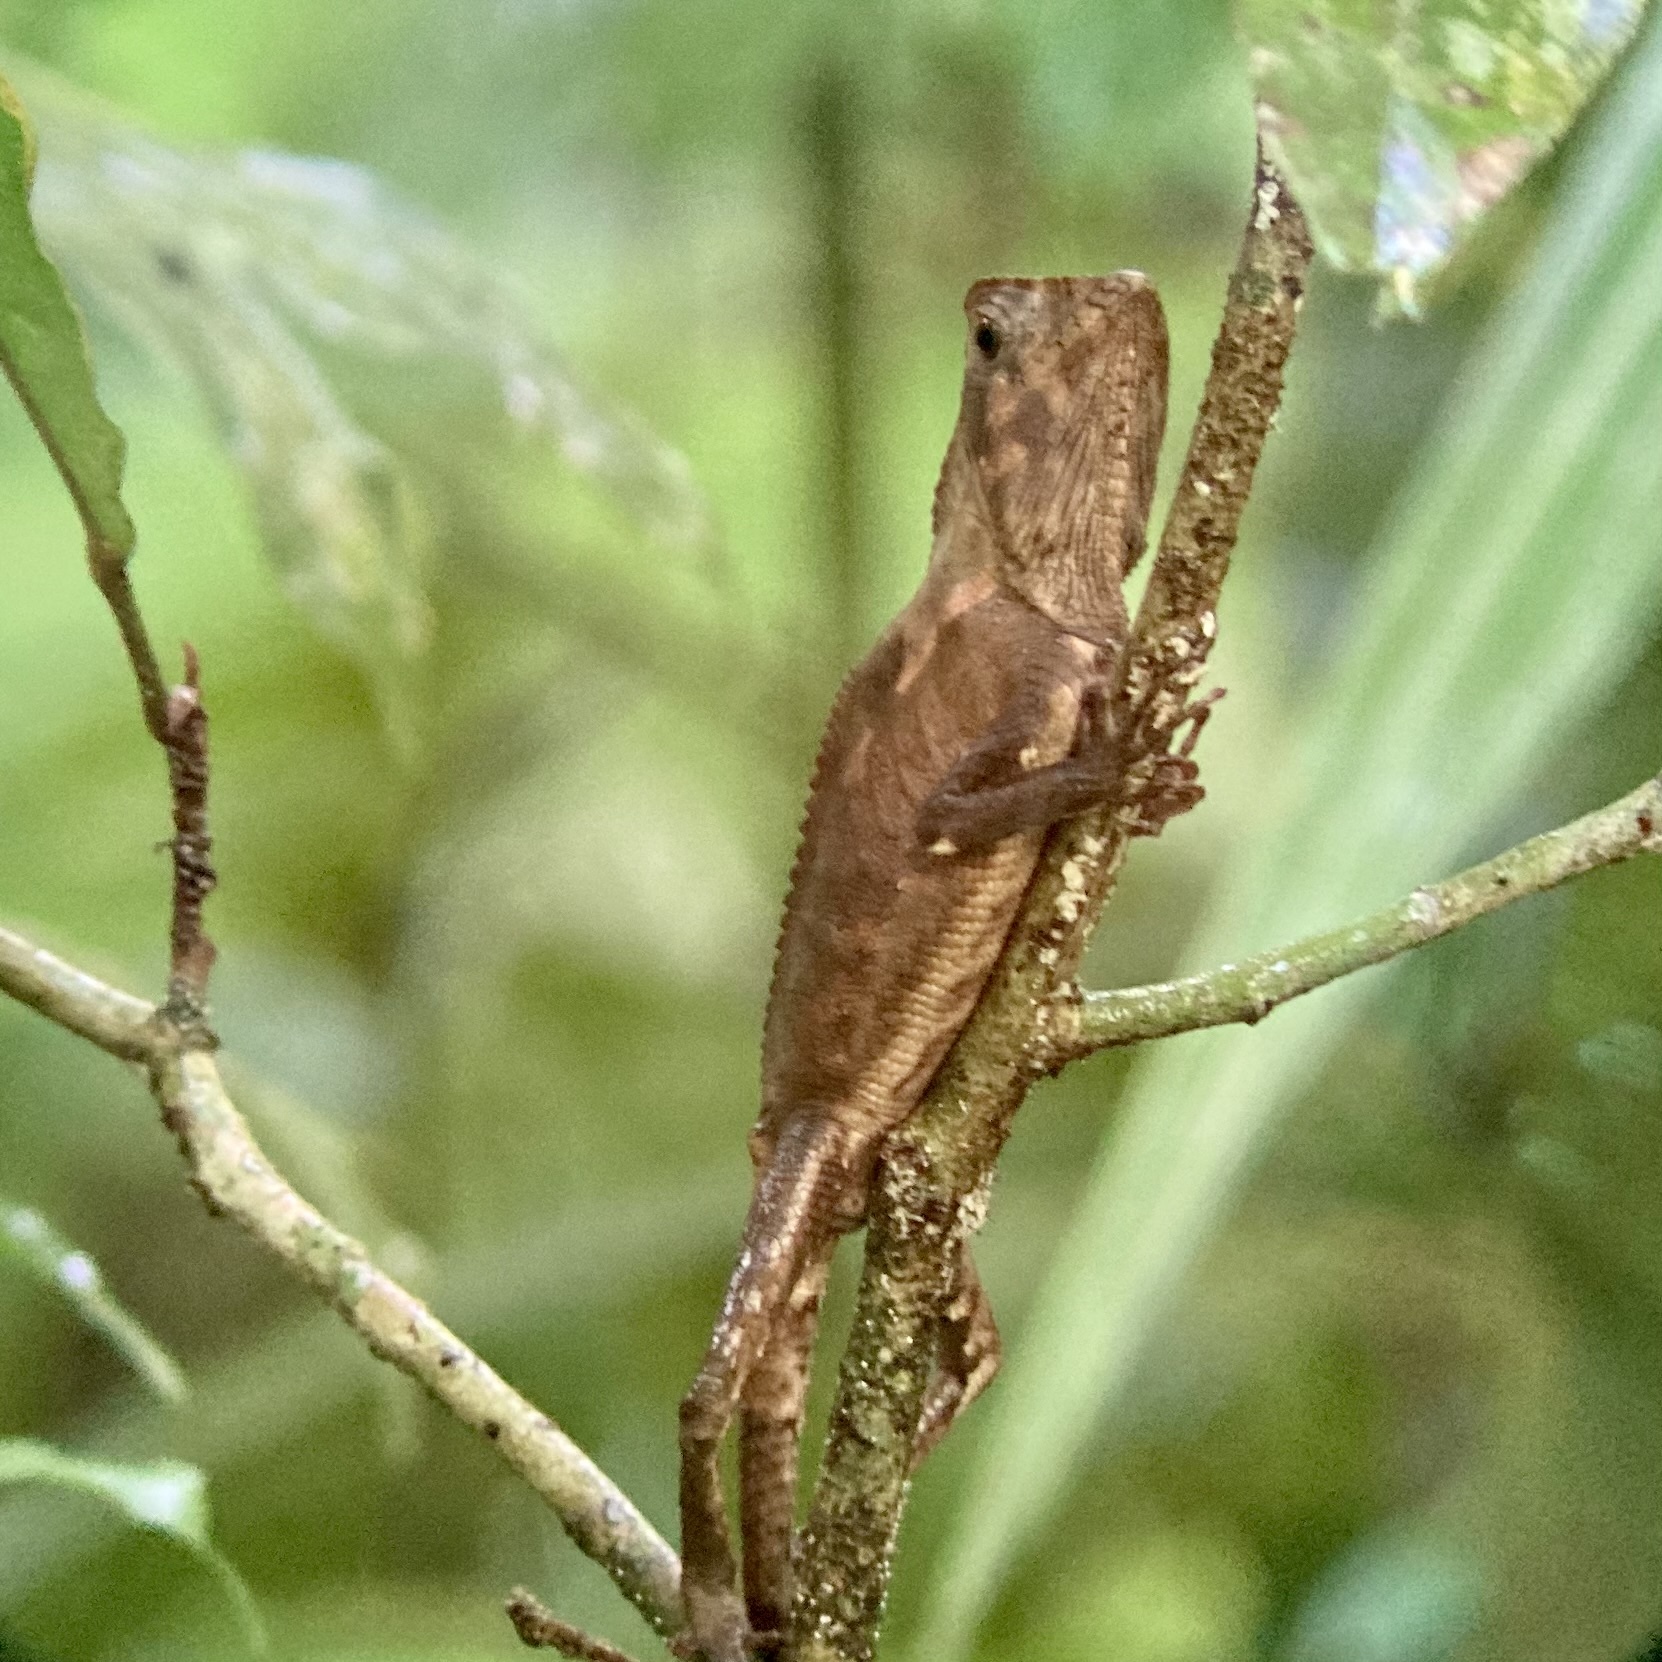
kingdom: Animalia
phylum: Chordata
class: Squamata
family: Corytophanidae
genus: Corytophanes
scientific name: Corytophanes cristatus
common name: Smooth helmeted iguana
